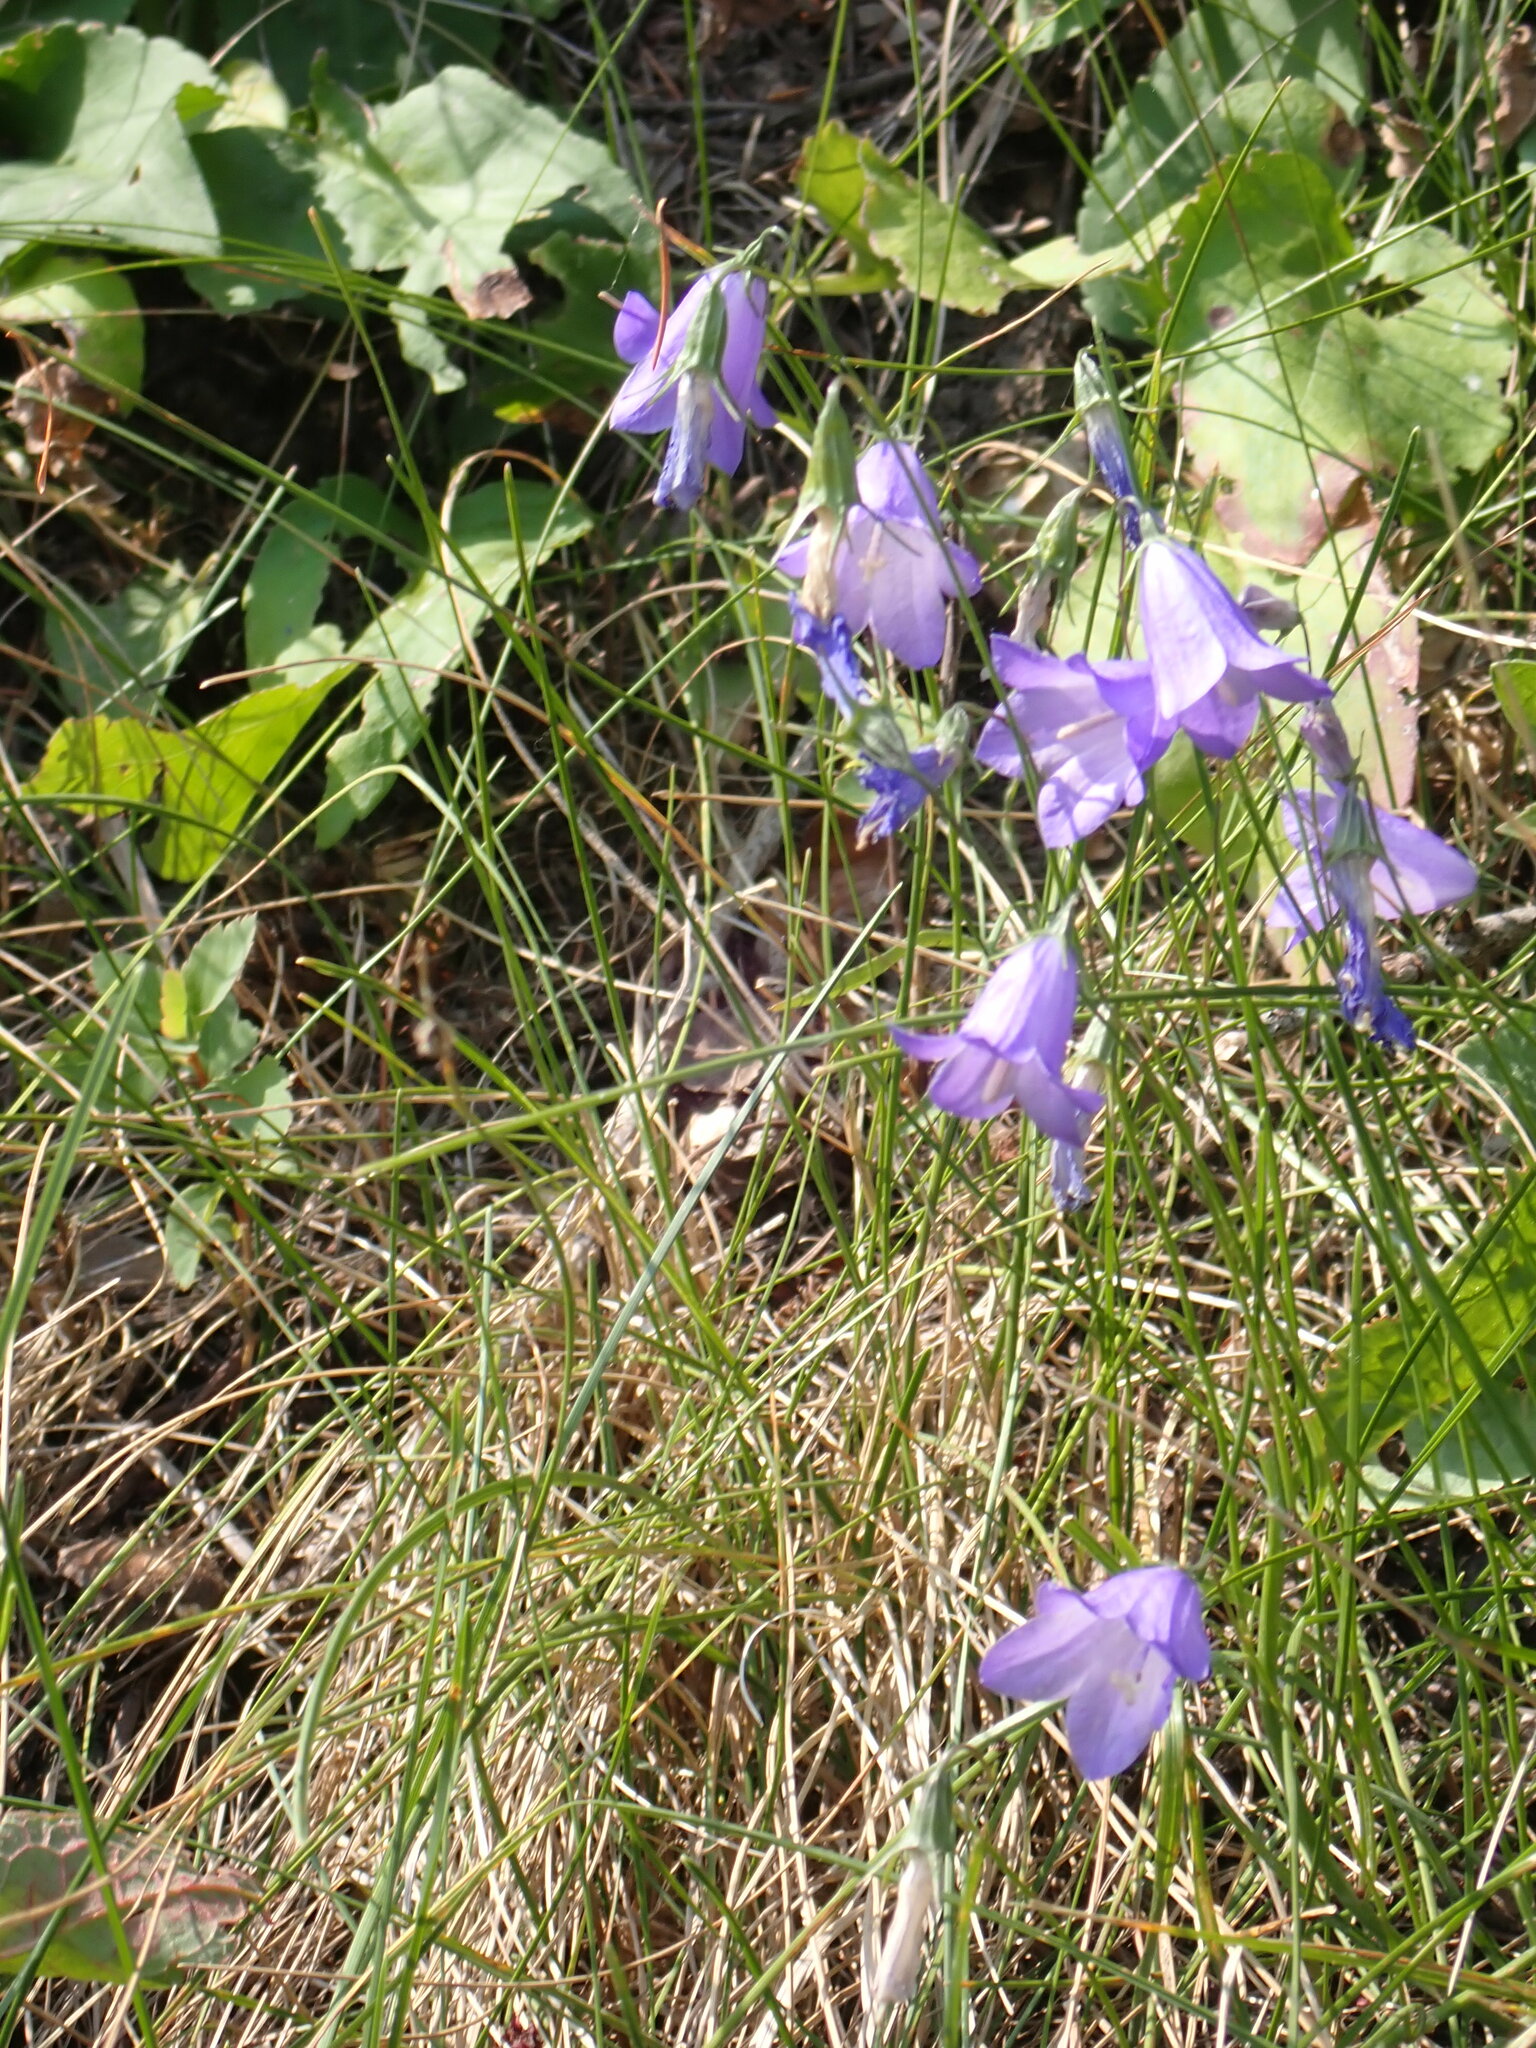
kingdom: Plantae
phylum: Tracheophyta
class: Magnoliopsida
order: Asterales
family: Campanulaceae
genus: Campanula
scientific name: Campanula alaskana
